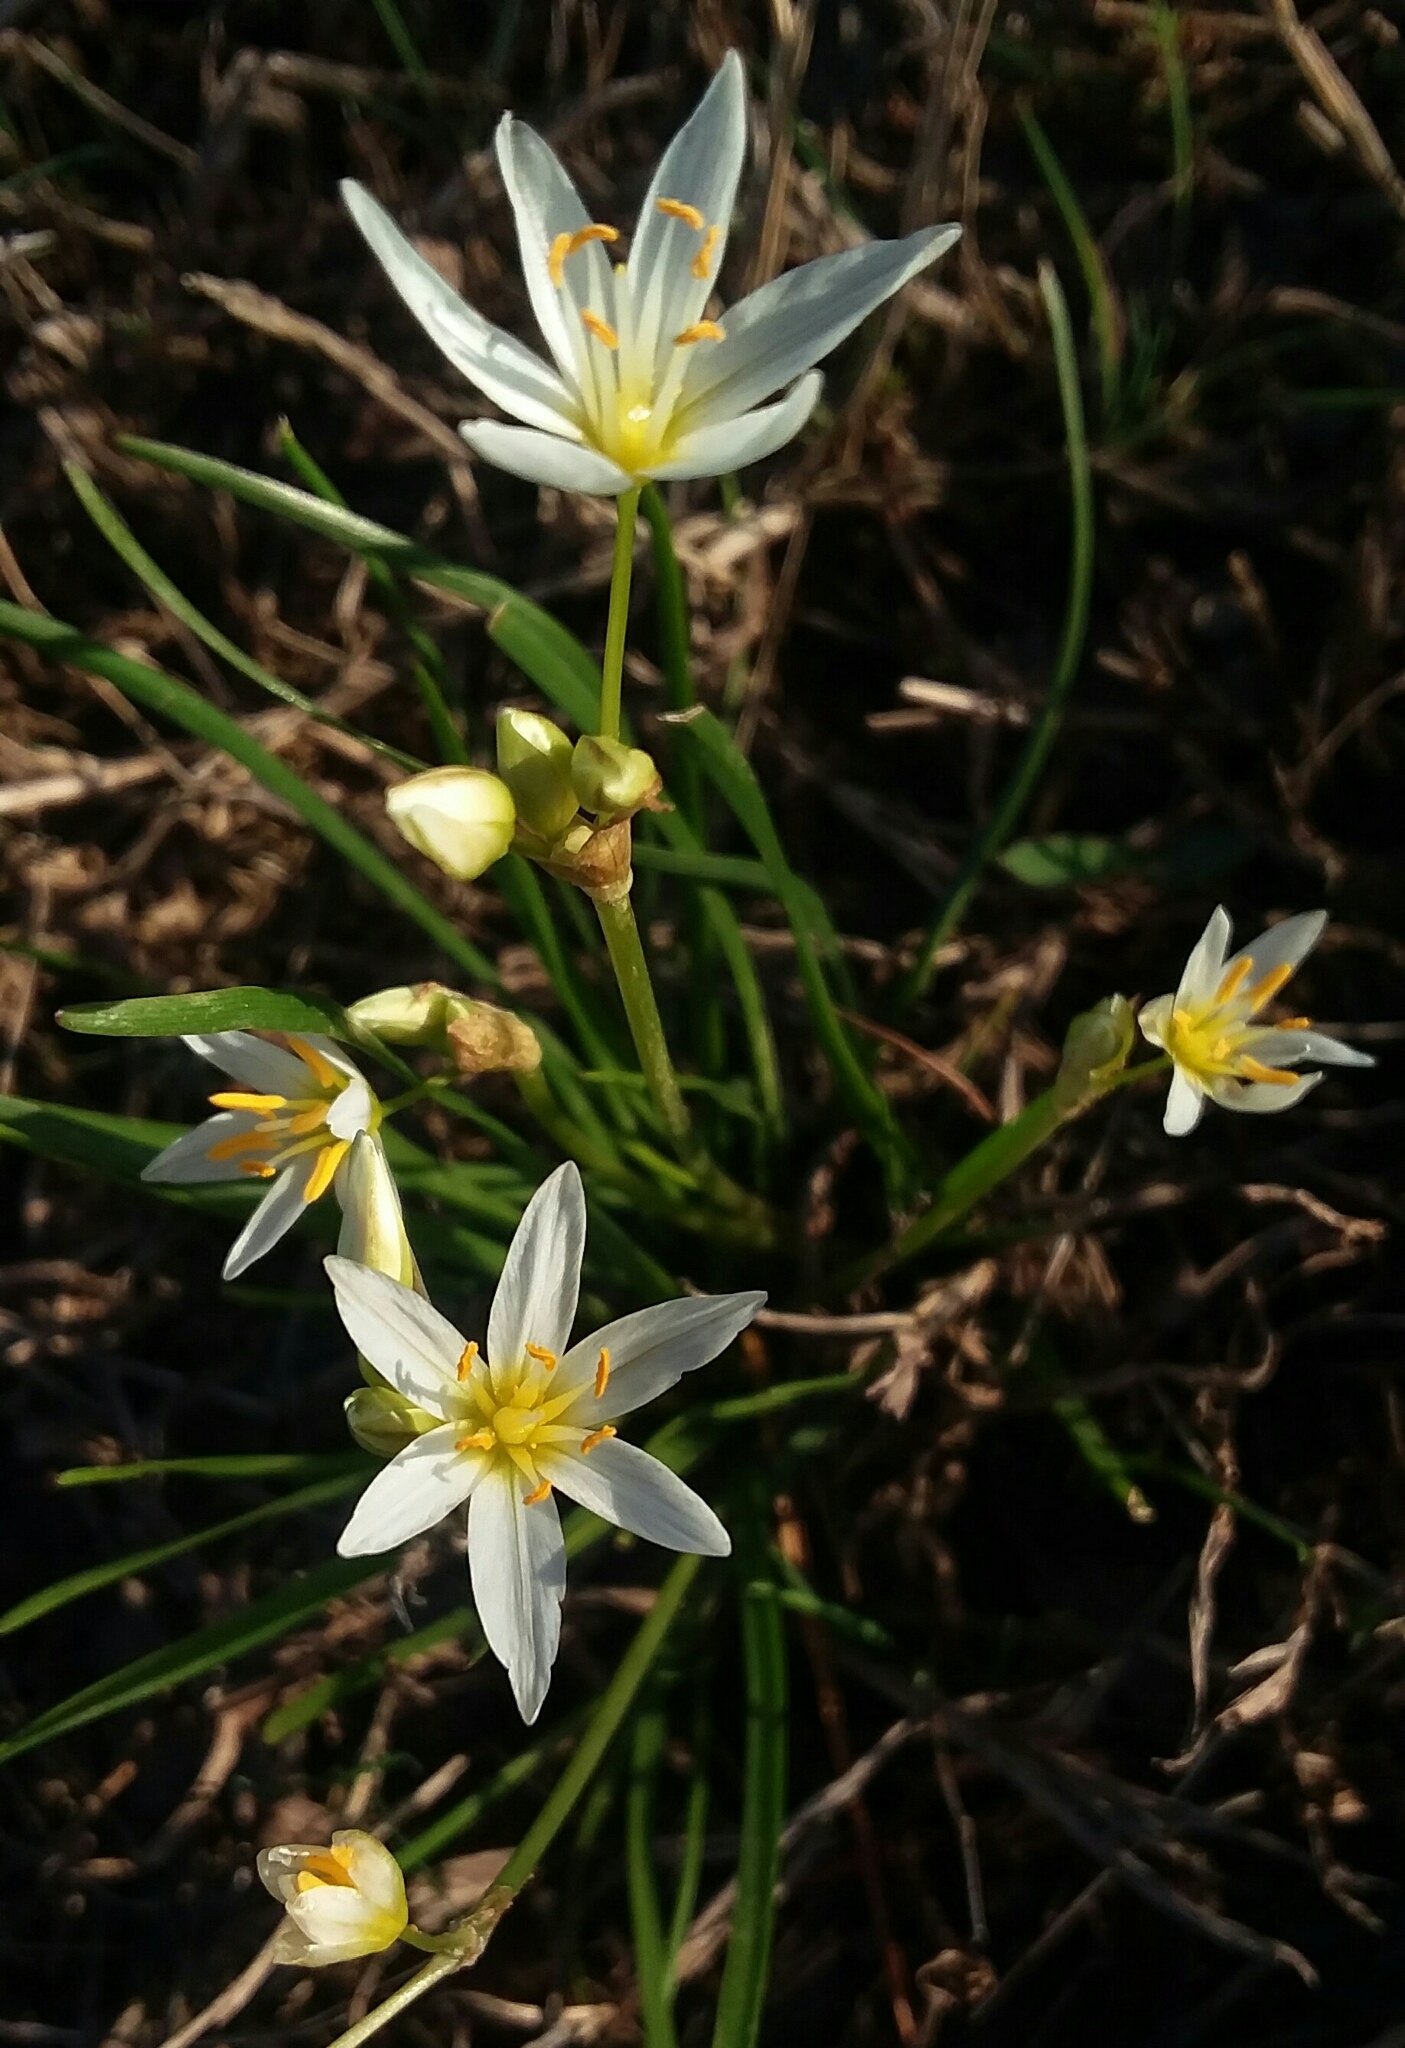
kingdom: Plantae
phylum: Tracheophyta
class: Liliopsida
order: Asparagales
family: Amaryllidaceae
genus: Nothoscordum
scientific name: Nothoscordum bivalve
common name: Crow-poison
